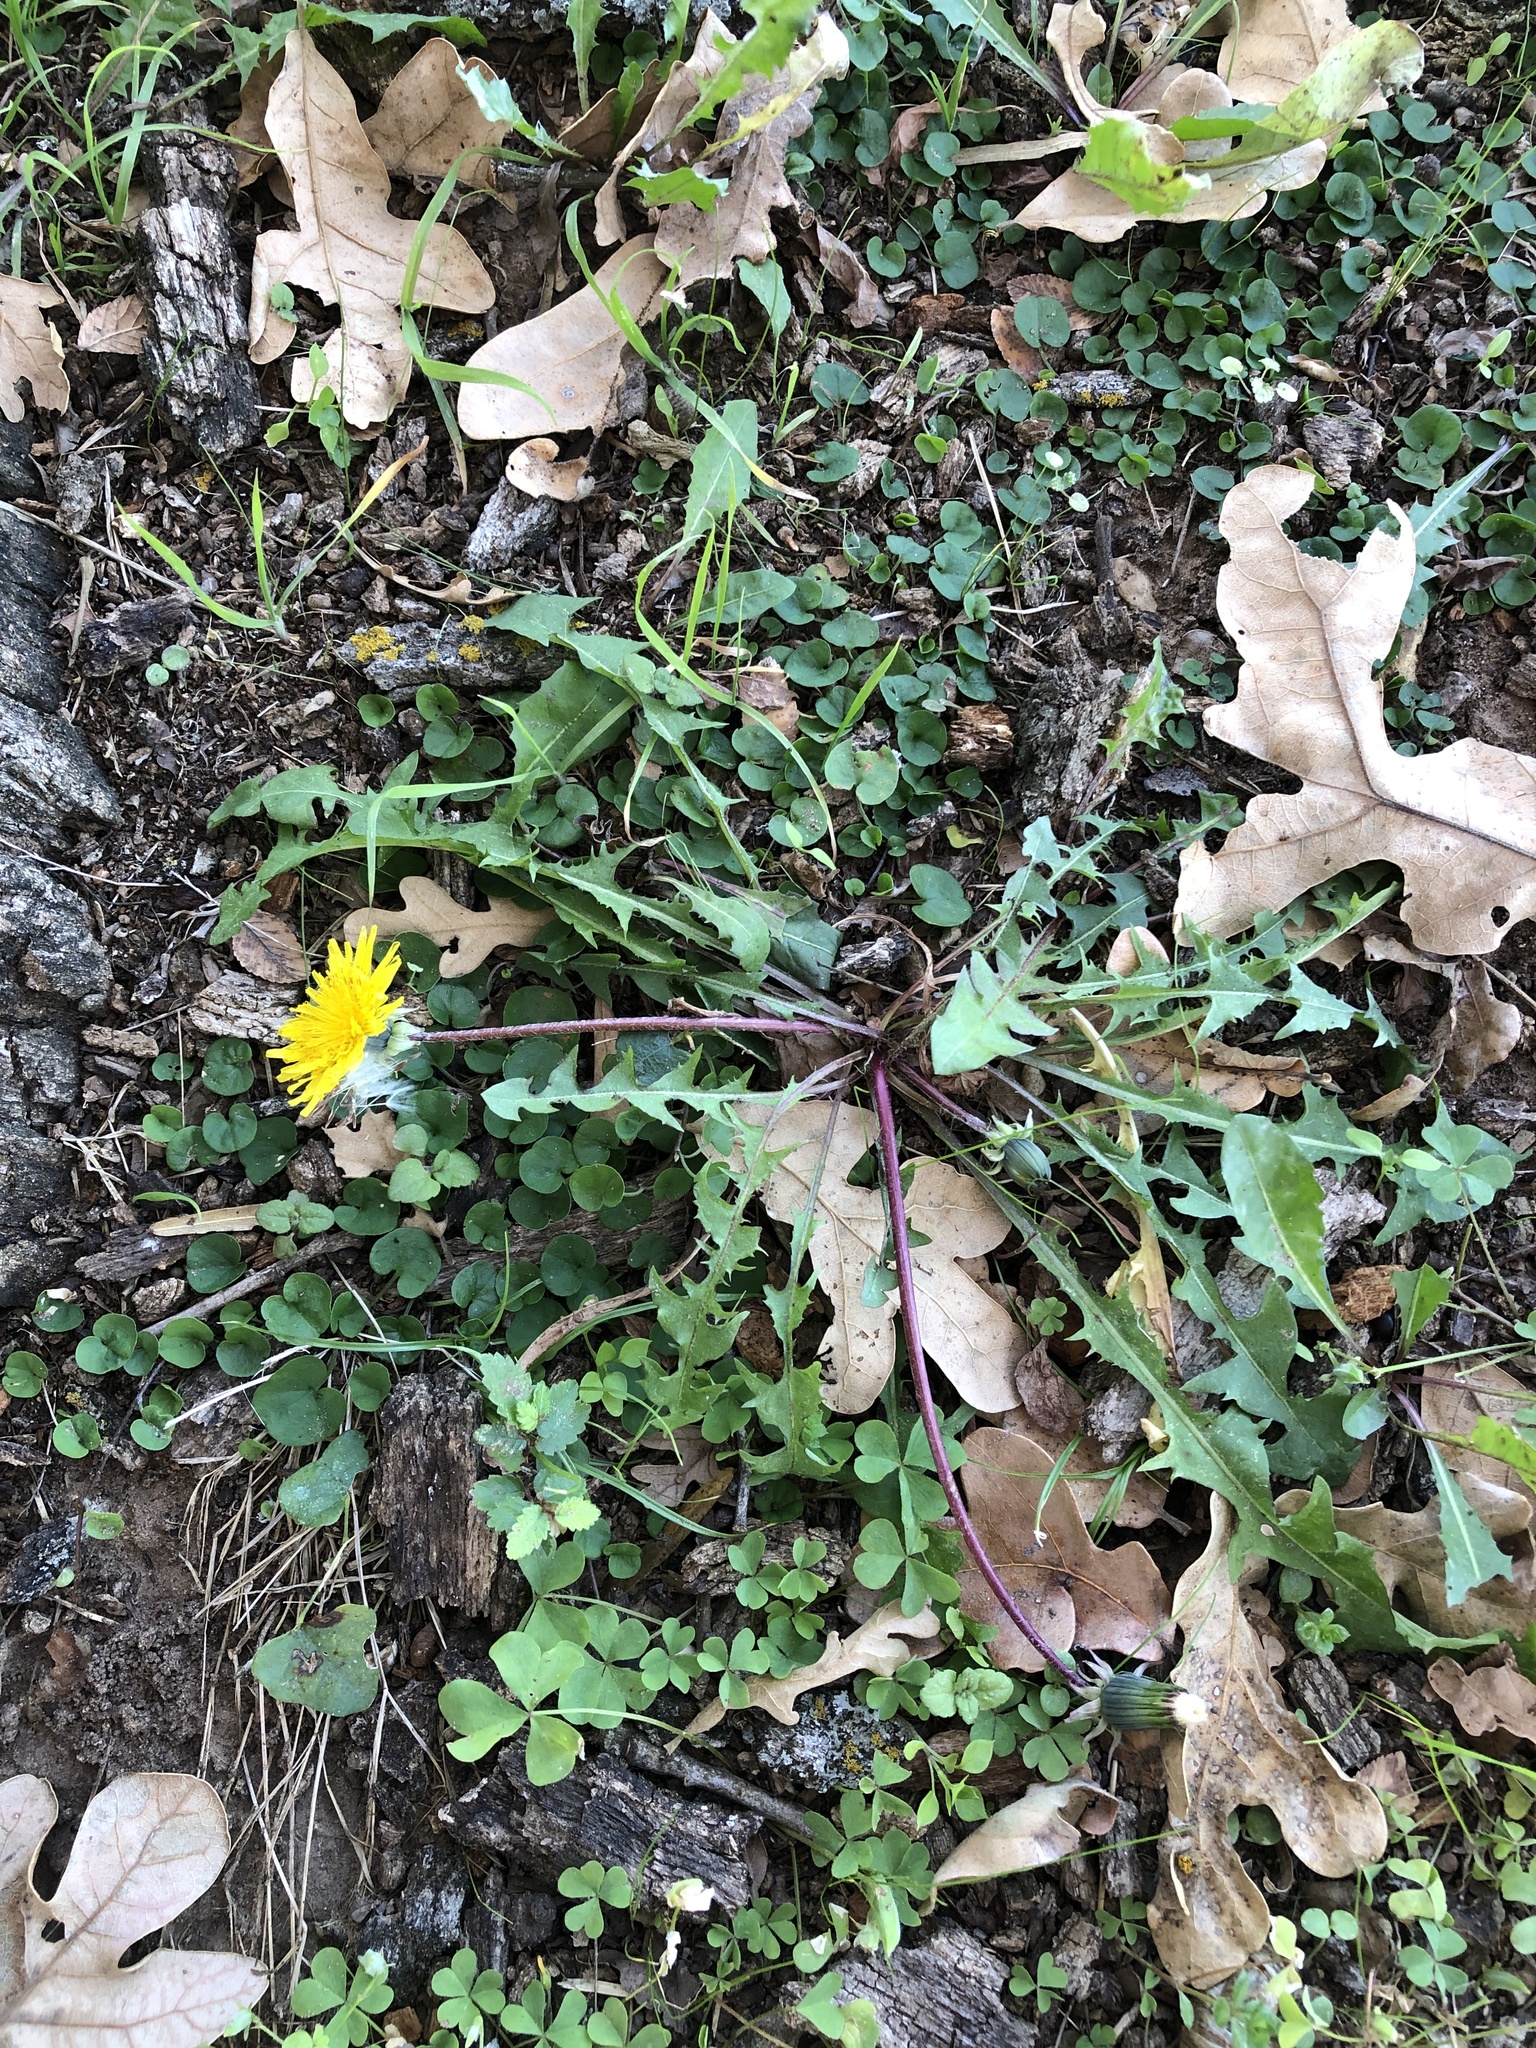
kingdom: Plantae
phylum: Tracheophyta
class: Magnoliopsida
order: Asterales
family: Asteraceae
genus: Taraxacum
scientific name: Taraxacum officinale
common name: Common dandelion
